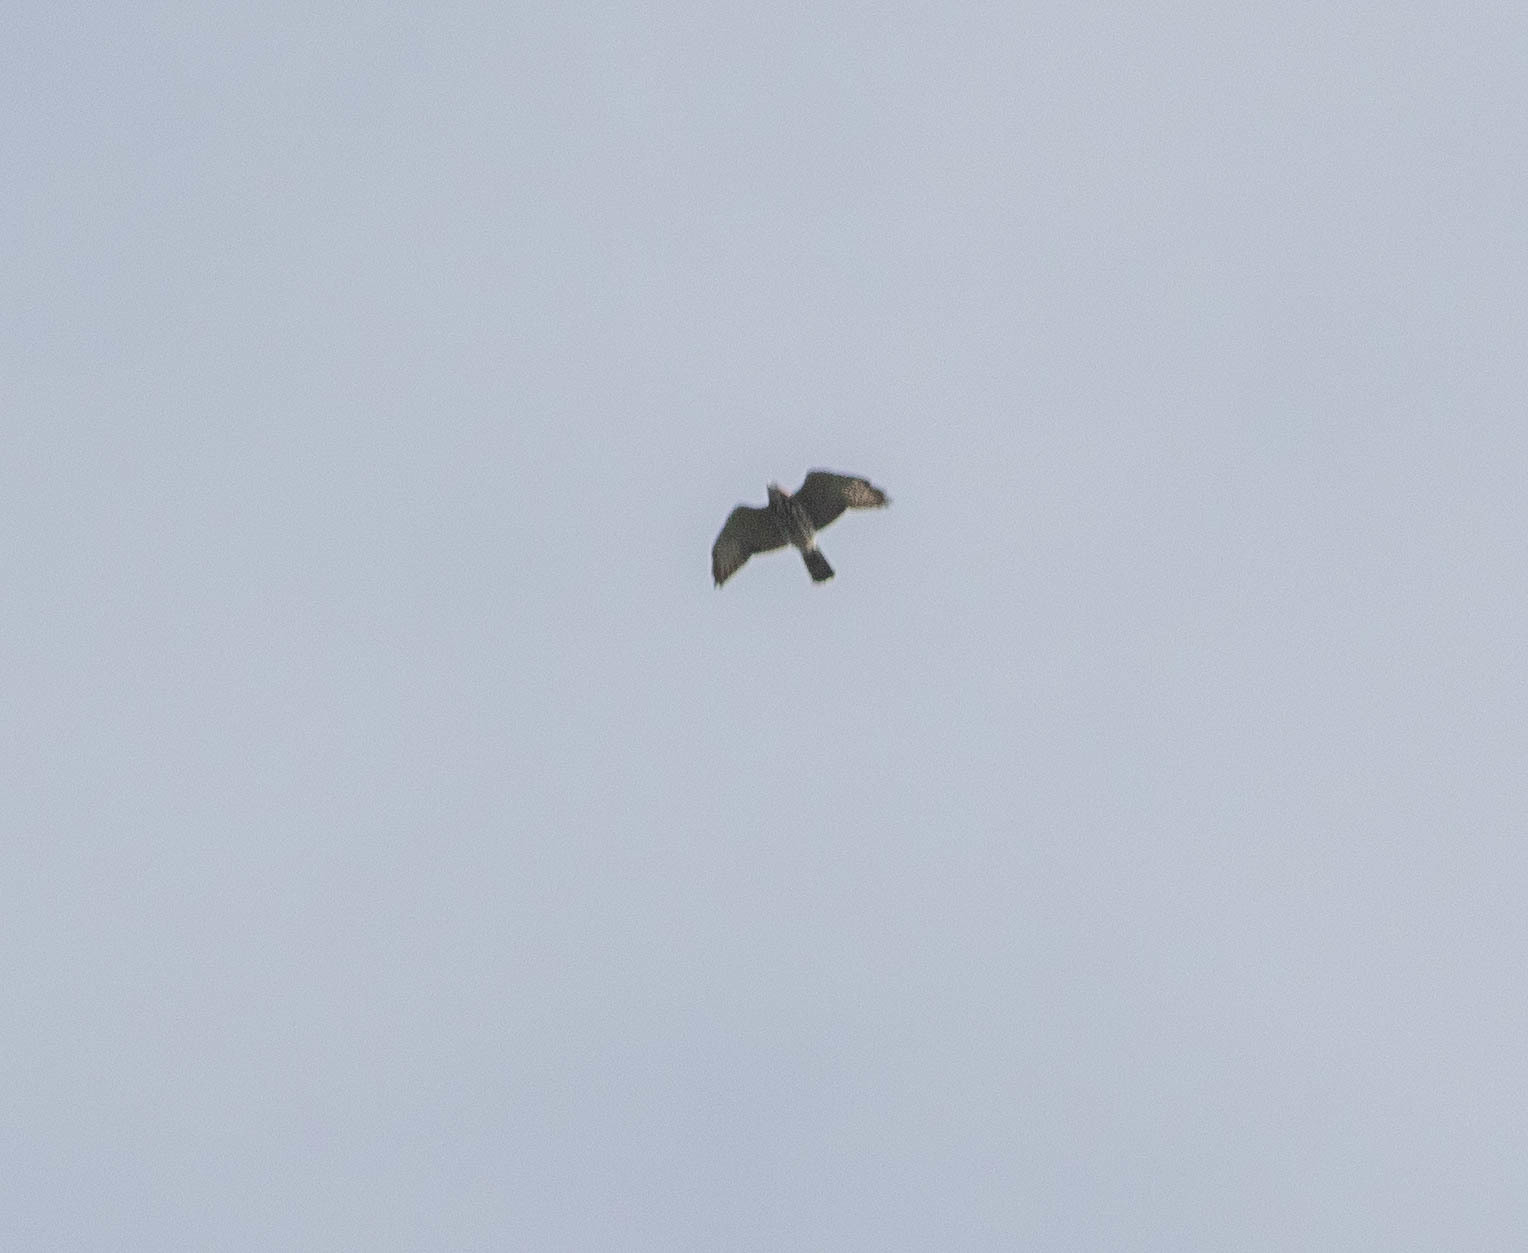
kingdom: Animalia
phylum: Chordata
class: Aves
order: Accipitriformes
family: Accipitridae
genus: Buteo
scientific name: Buteo platypterus
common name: Broad-winged hawk
